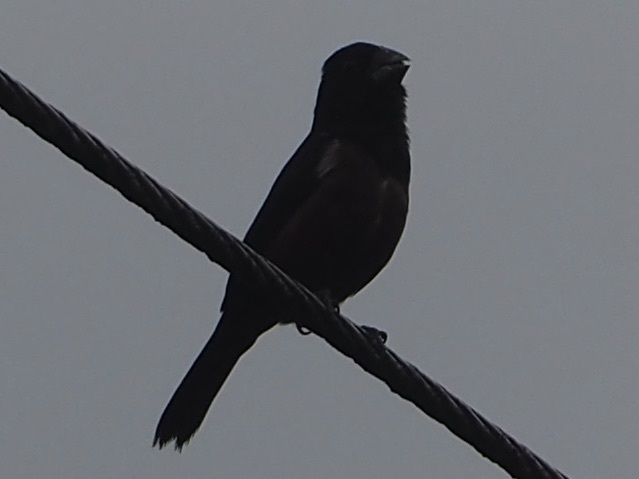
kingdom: Animalia
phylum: Chordata
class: Aves
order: Passeriformes
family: Thraupidae
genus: Sporophila
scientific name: Sporophila angolensis
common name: Chestnut-bellied seed-finch
